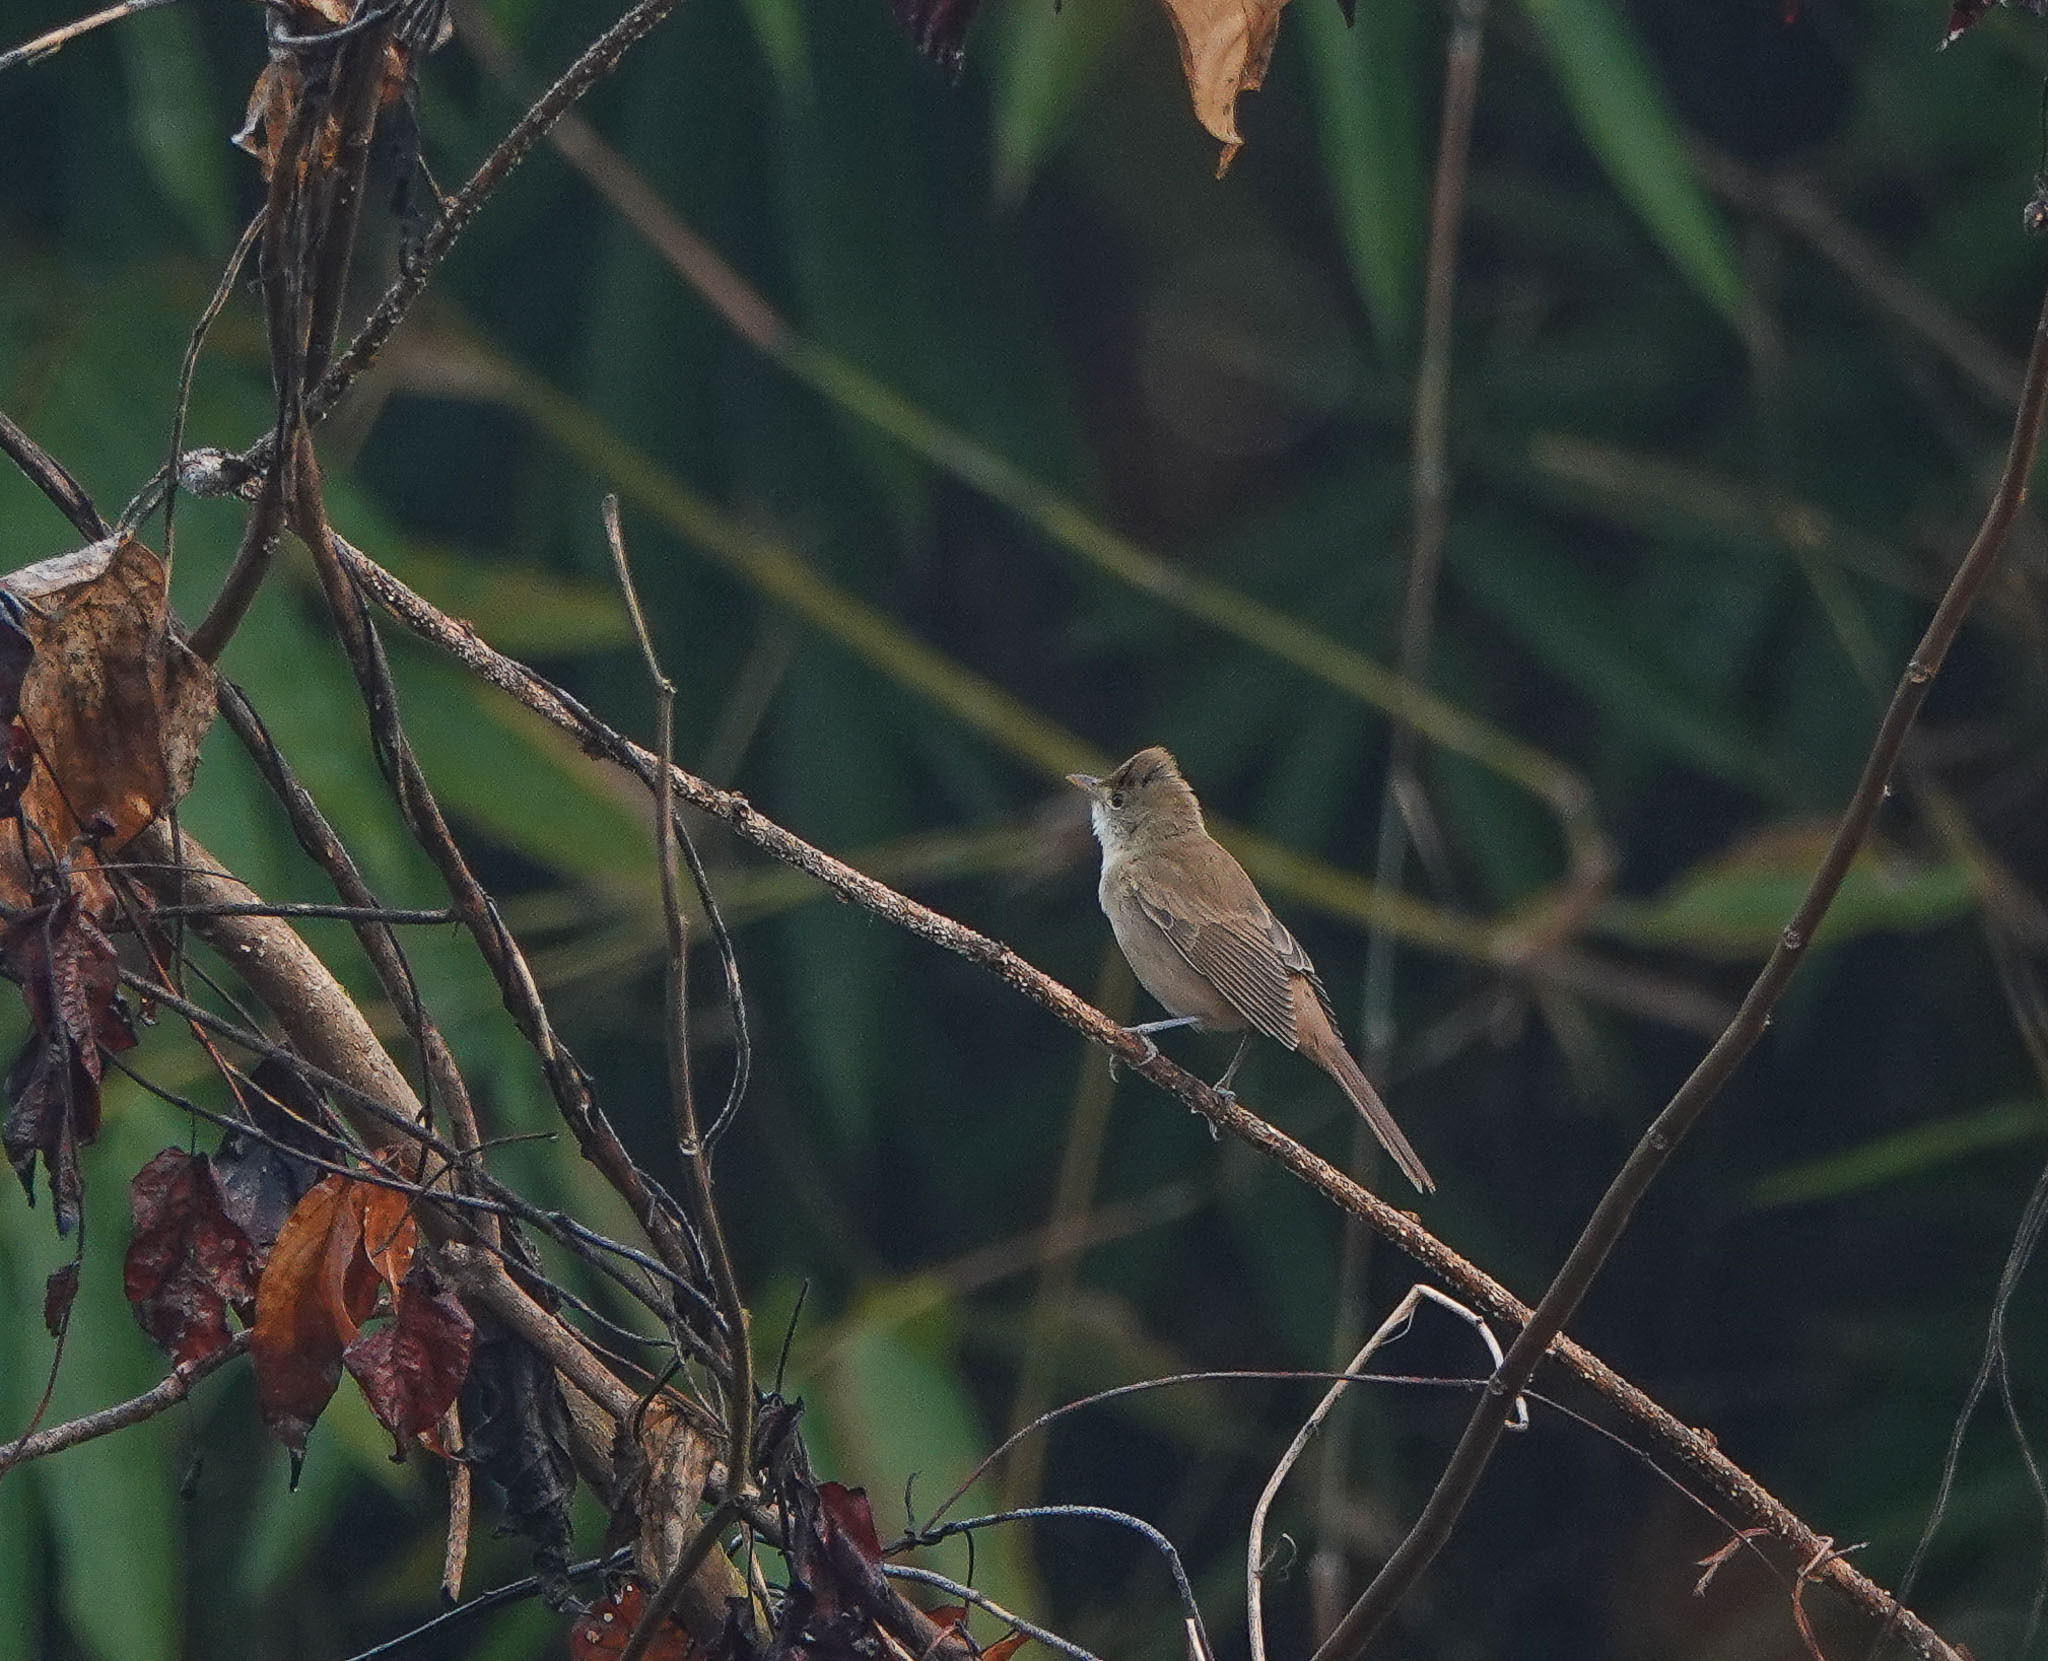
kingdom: Animalia
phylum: Chordata
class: Aves
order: Passeriformes
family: Acrocephalidae
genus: Iduna
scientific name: Iduna aedon
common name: Thick-billed warbler
